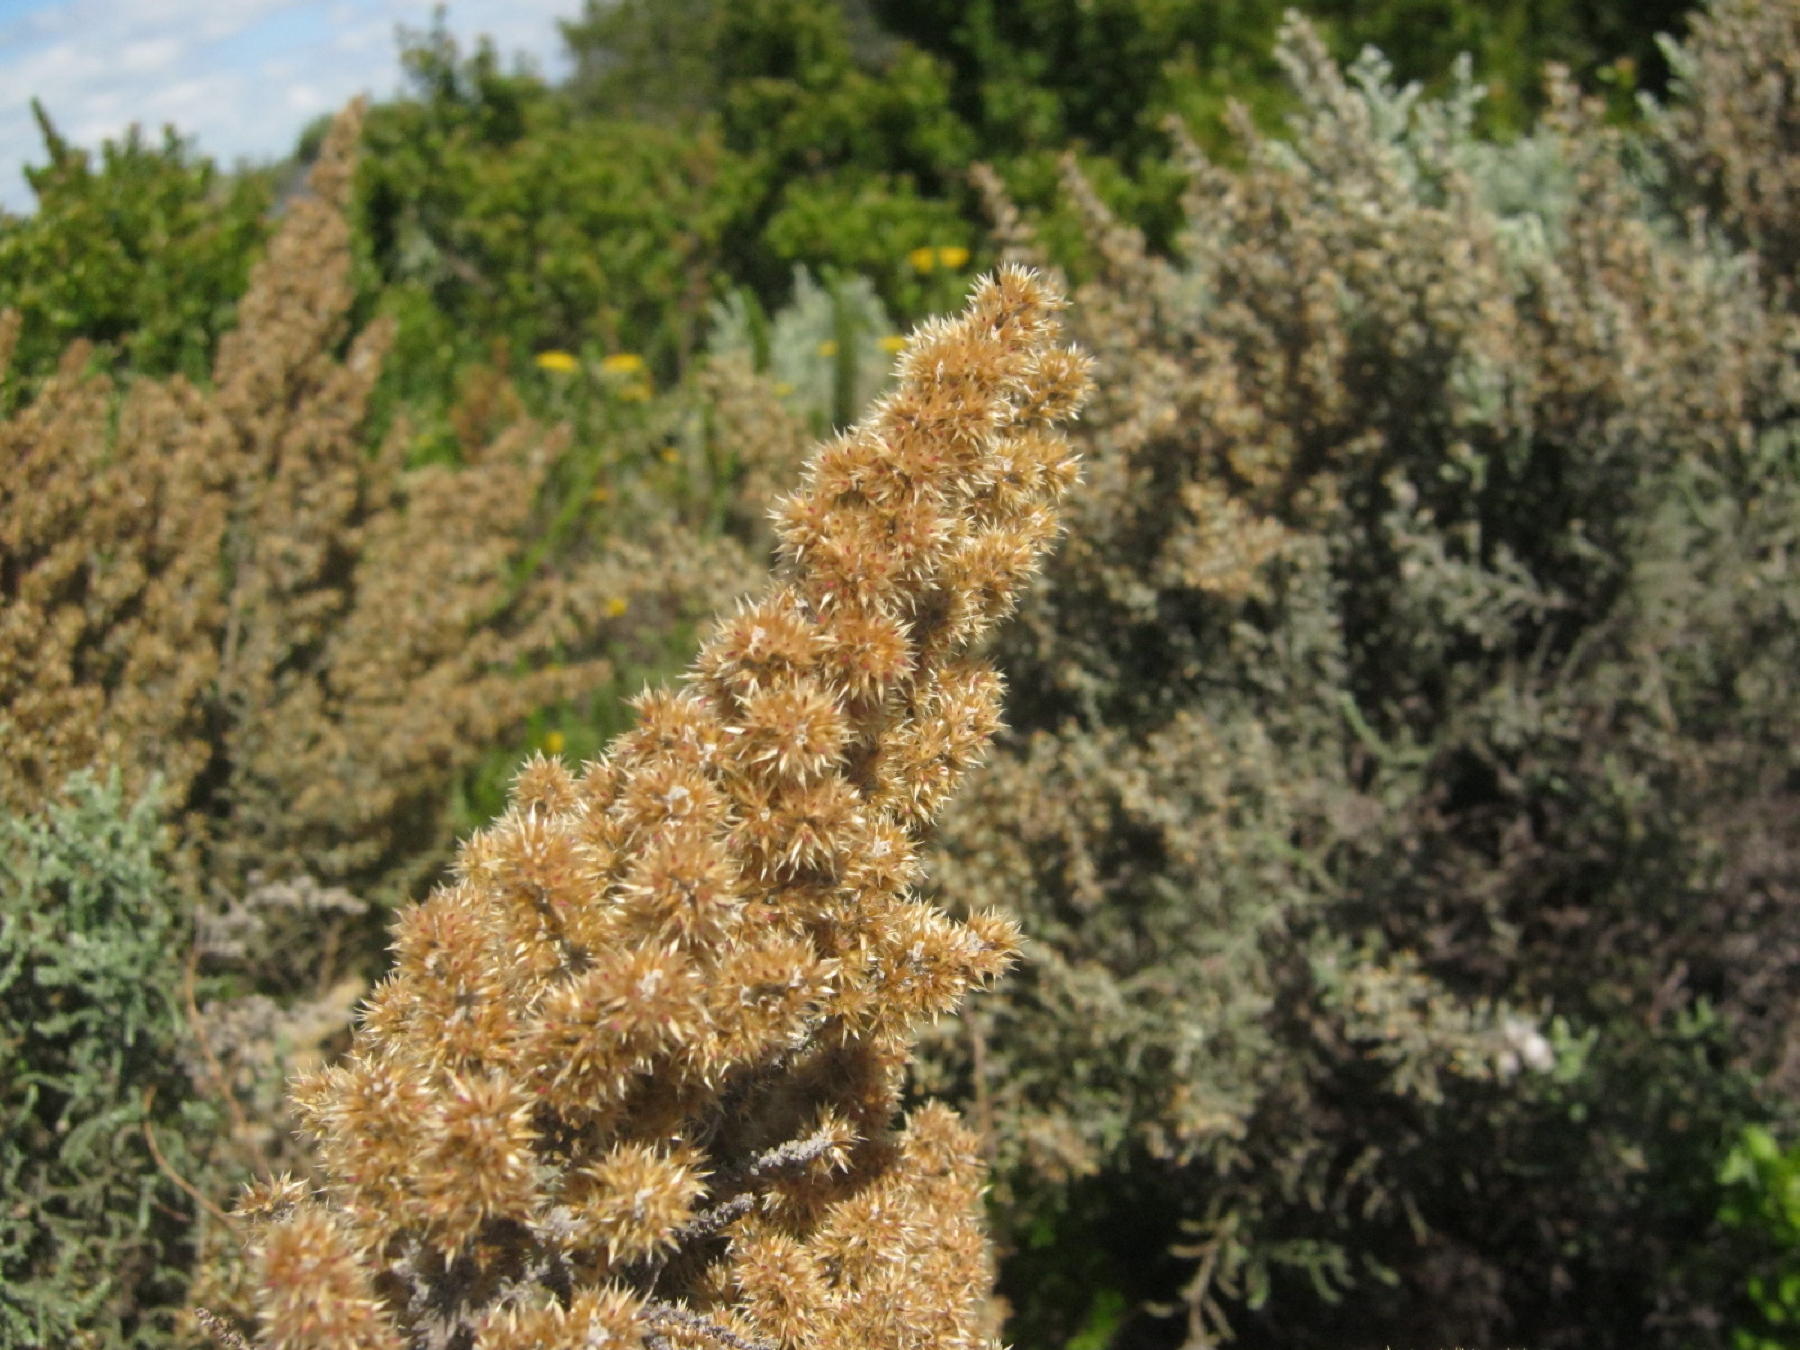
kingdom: Plantae
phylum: Tracheophyta
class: Magnoliopsida
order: Asterales
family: Asteraceae
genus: Seriphium
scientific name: Seriphium plumosum
